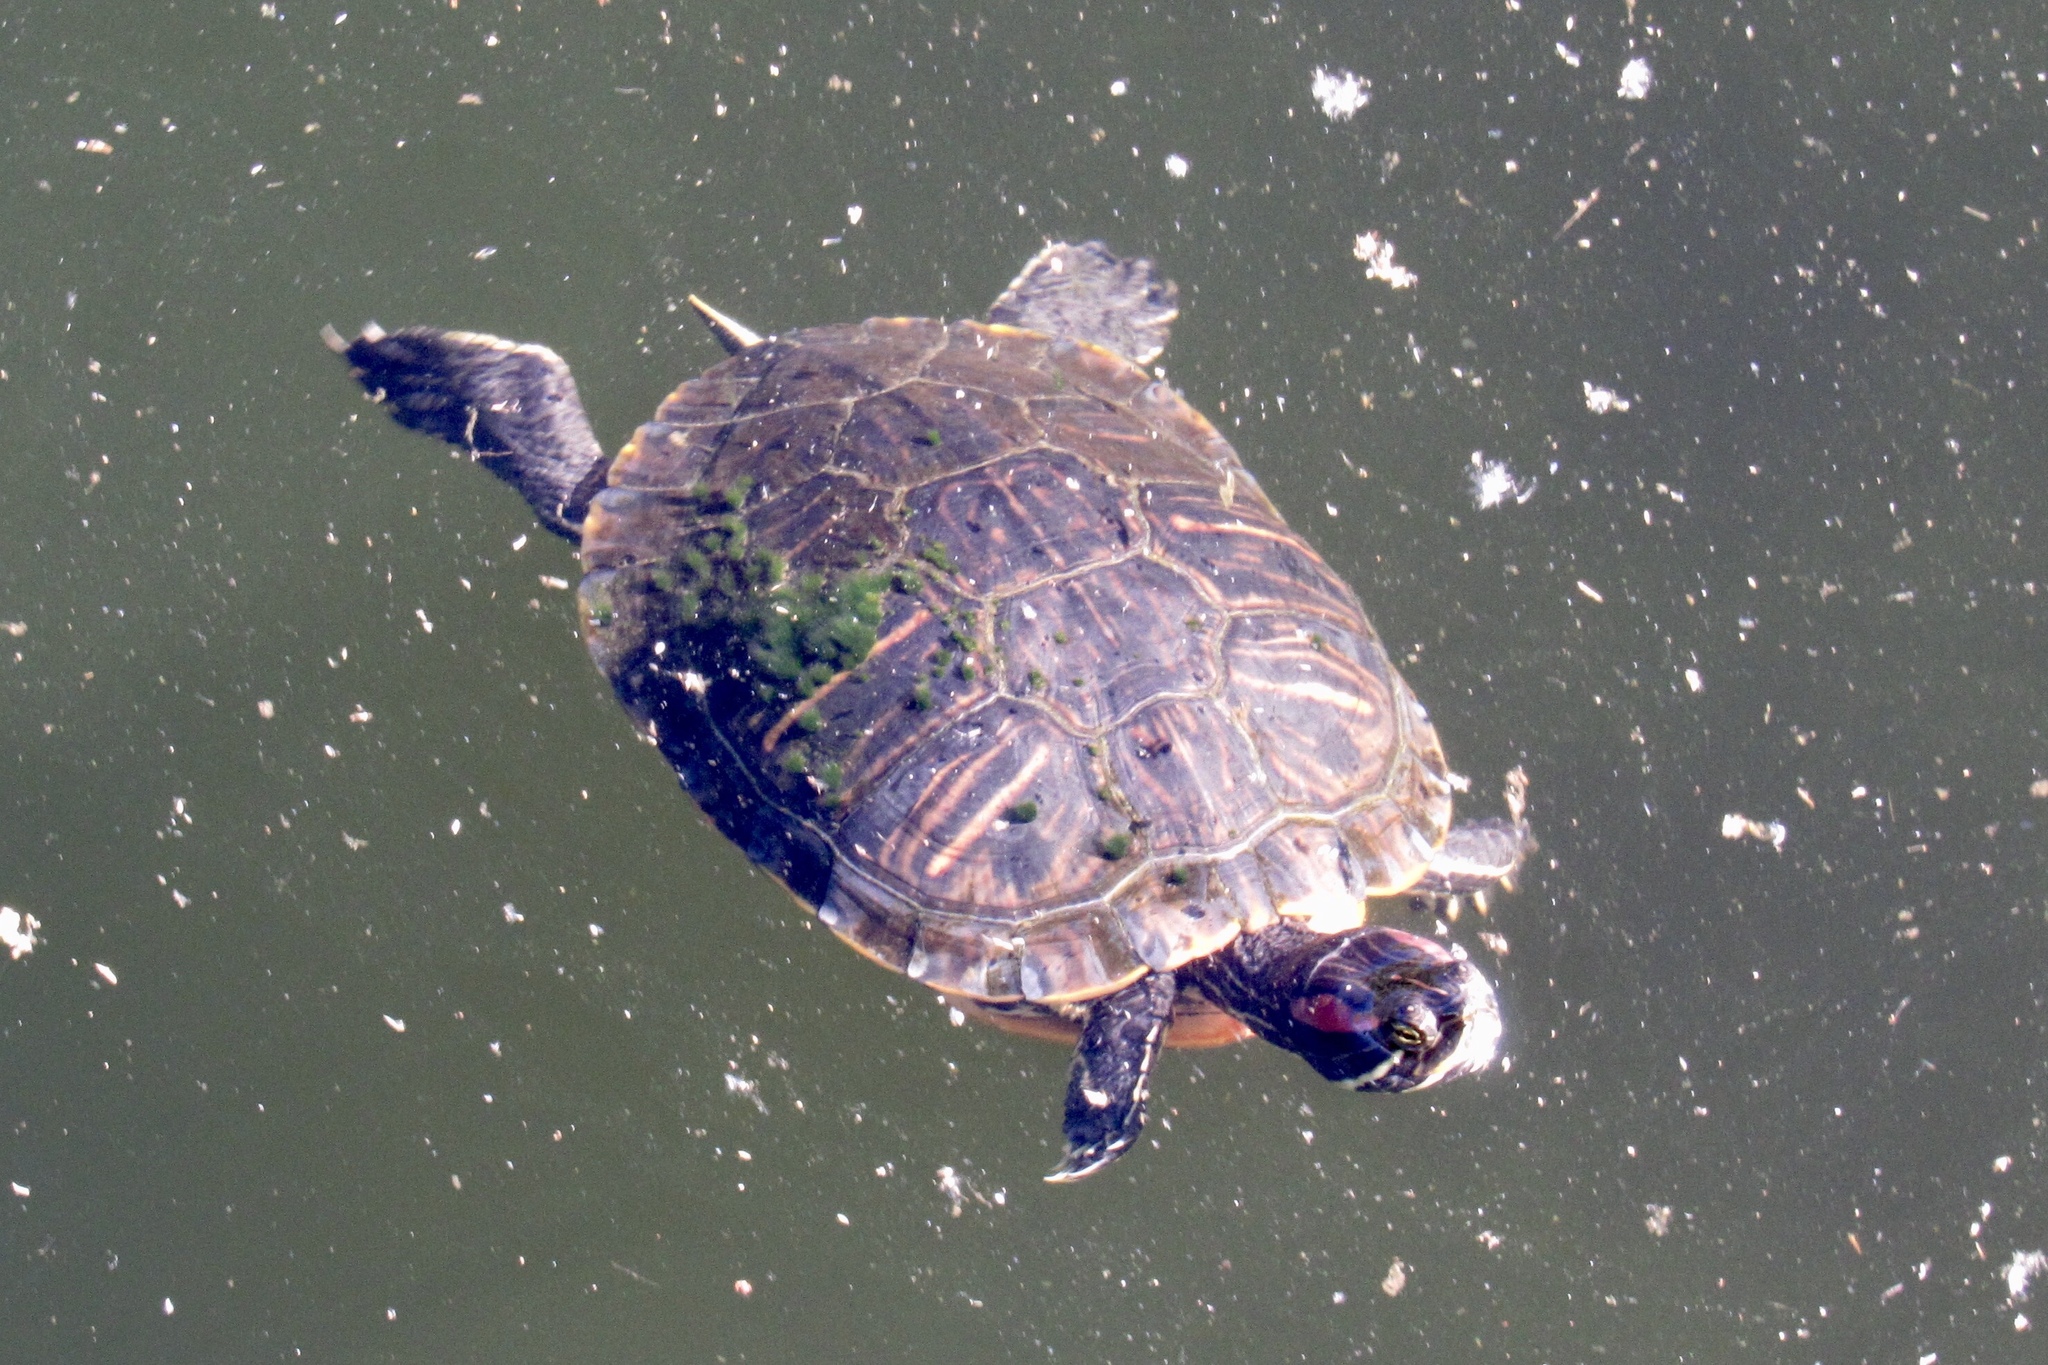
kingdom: Animalia
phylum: Chordata
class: Testudines
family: Emydidae
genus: Trachemys
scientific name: Trachemys scripta
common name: Slider
